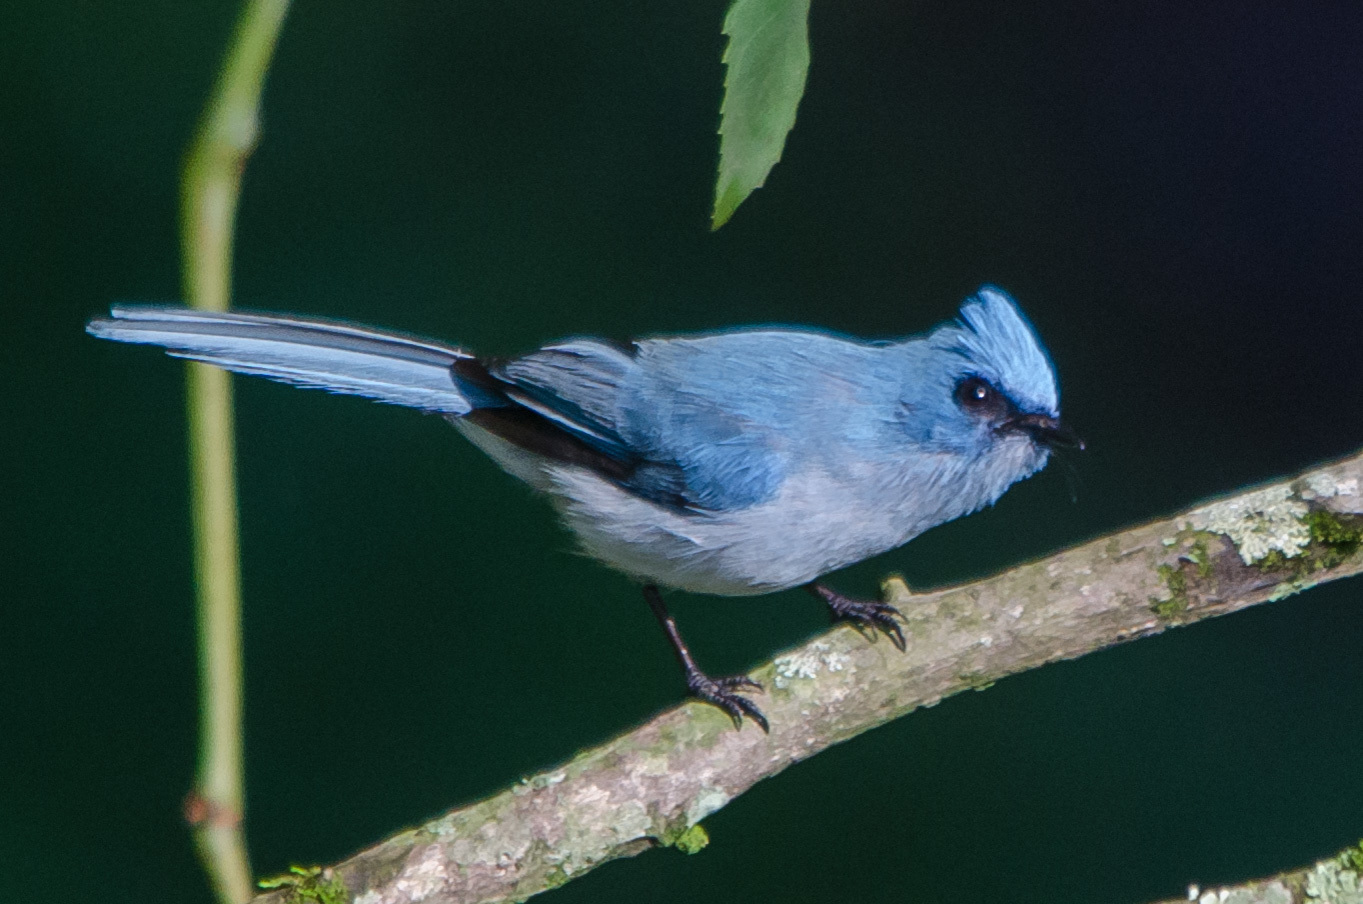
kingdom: Animalia
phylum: Chordata
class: Aves
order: Passeriformes
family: Stenostiridae
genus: Elminia
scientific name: Elminia albicauda
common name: White-tailed blue flycatcher
